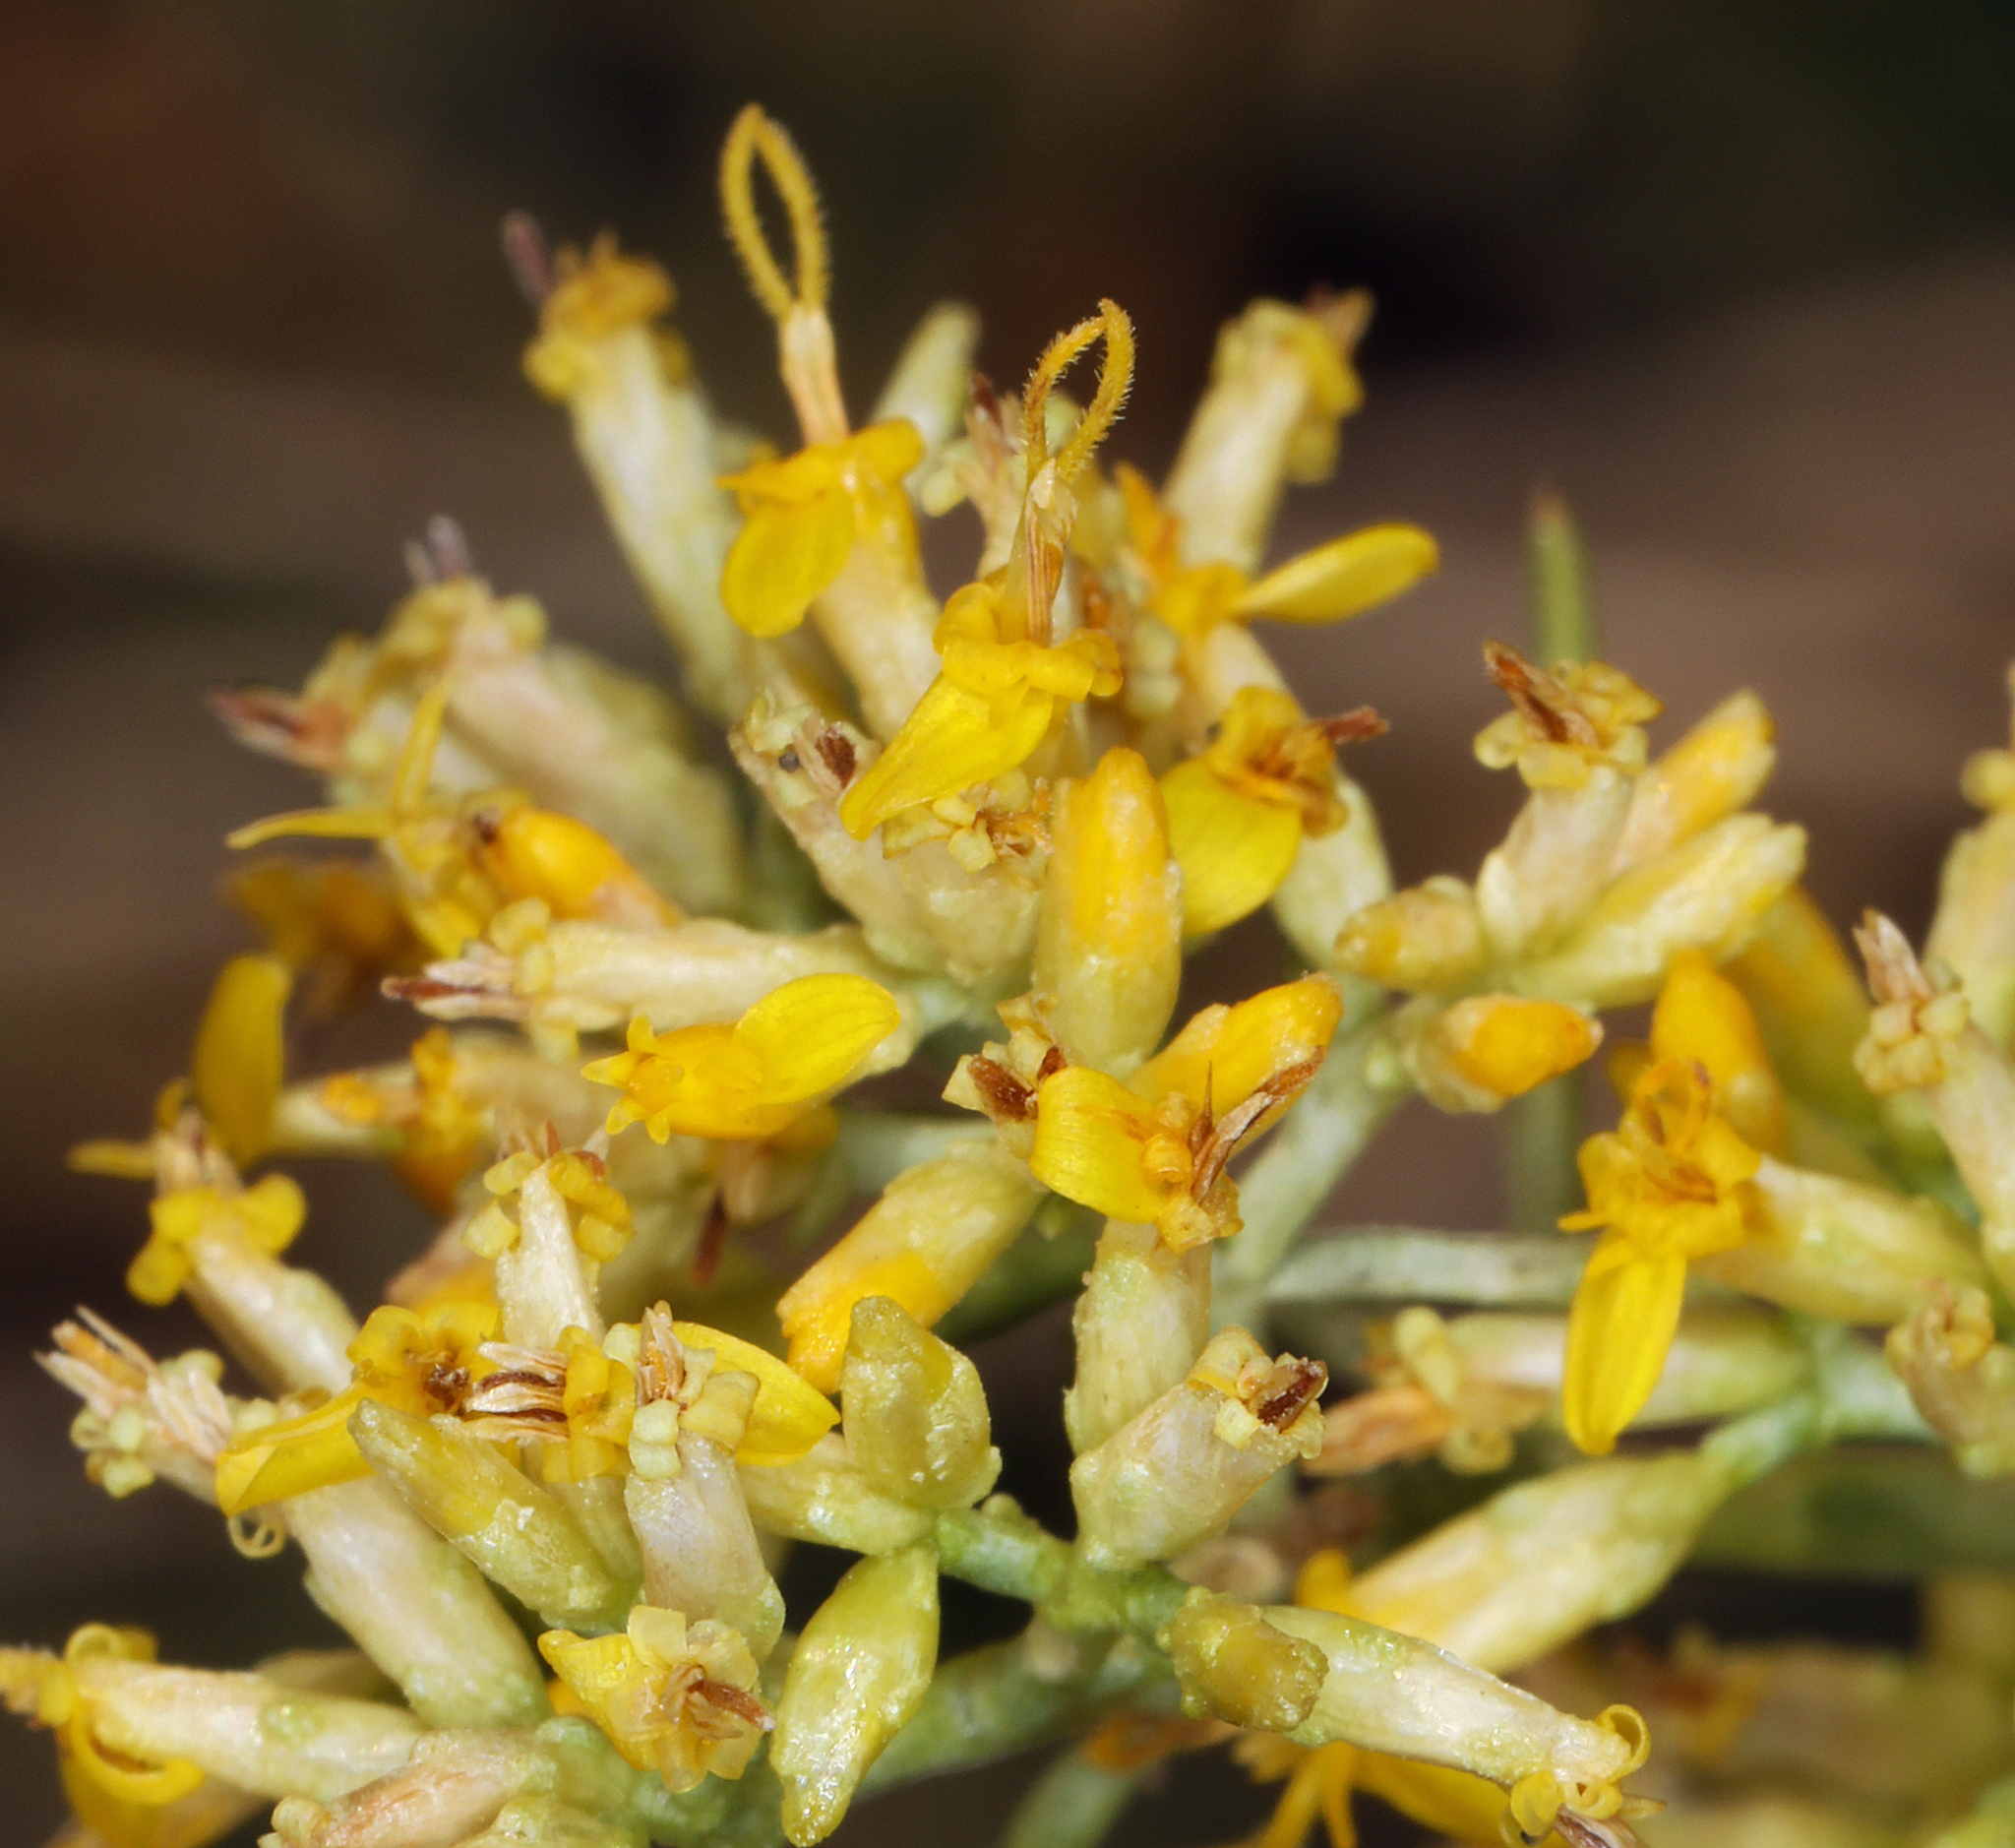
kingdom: Plantae
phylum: Tracheophyta
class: Magnoliopsida
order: Asterales
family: Asteraceae
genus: Gutierrezia
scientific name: Gutierrezia microcephala
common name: Thread snakeweed
